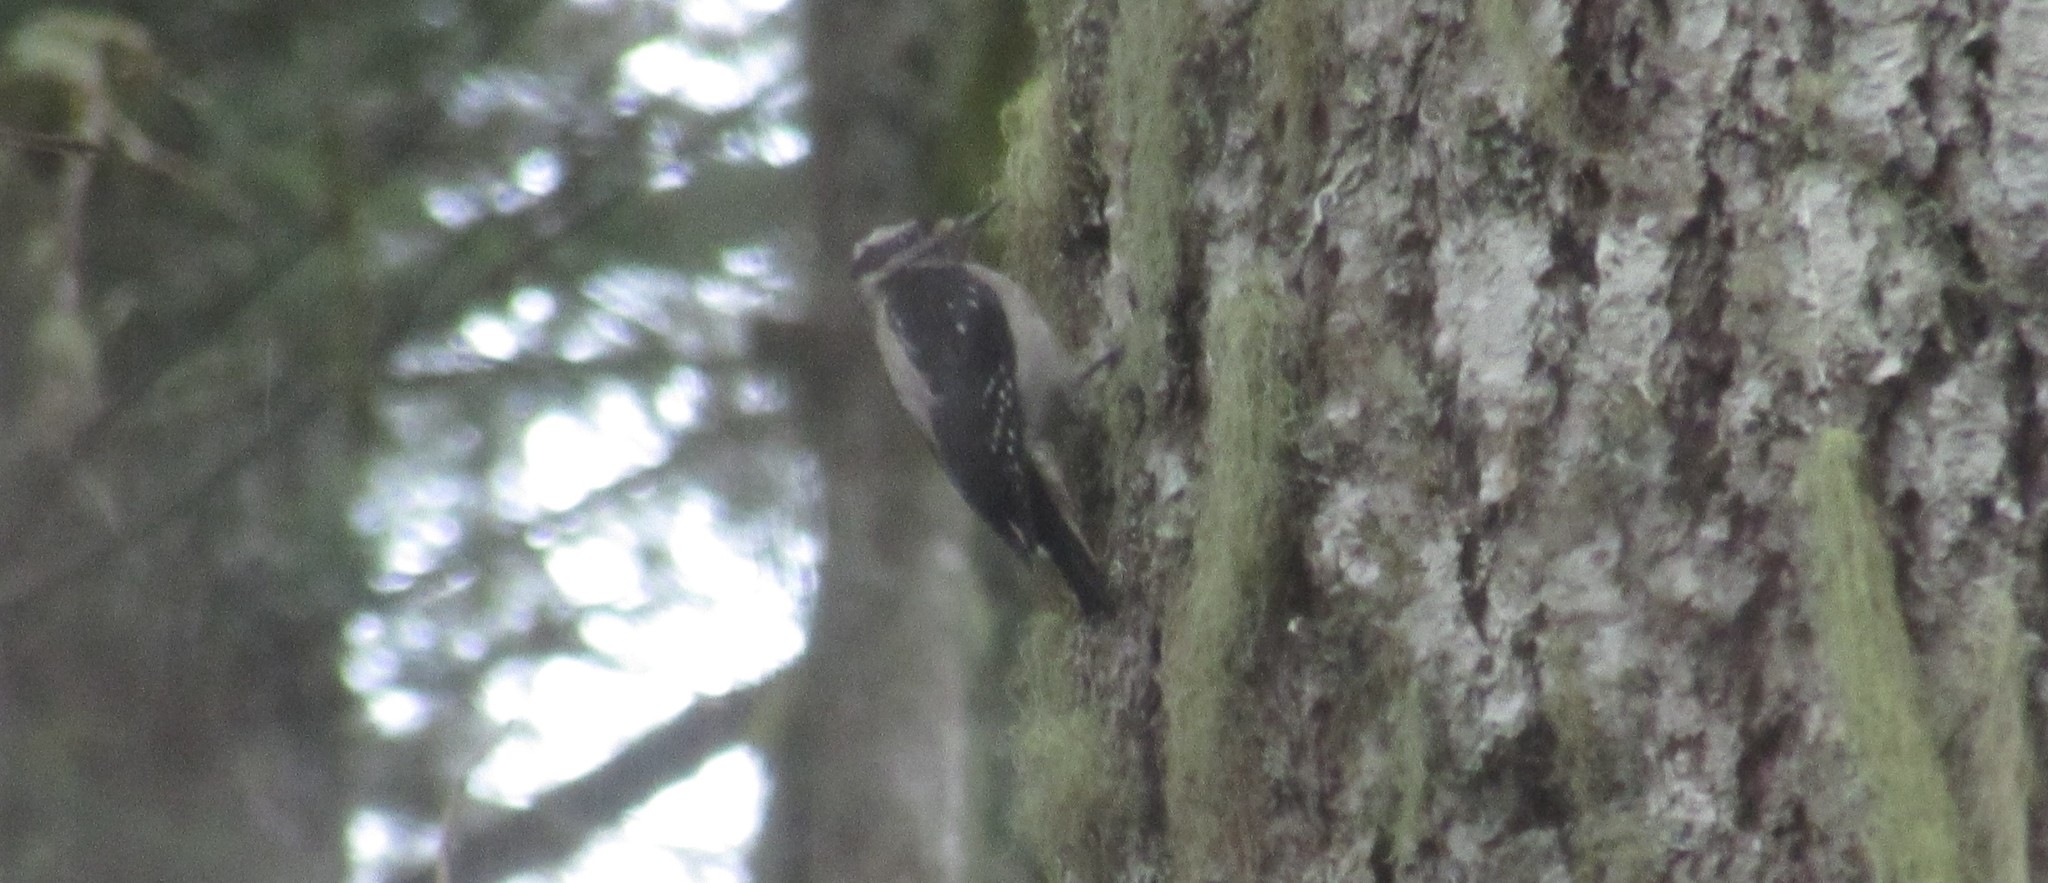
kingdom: Animalia
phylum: Chordata
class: Aves
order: Piciformes
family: Picidae
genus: Leuconotopicus
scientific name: Leuconotopicus villosus
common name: Hairy woodpecker
